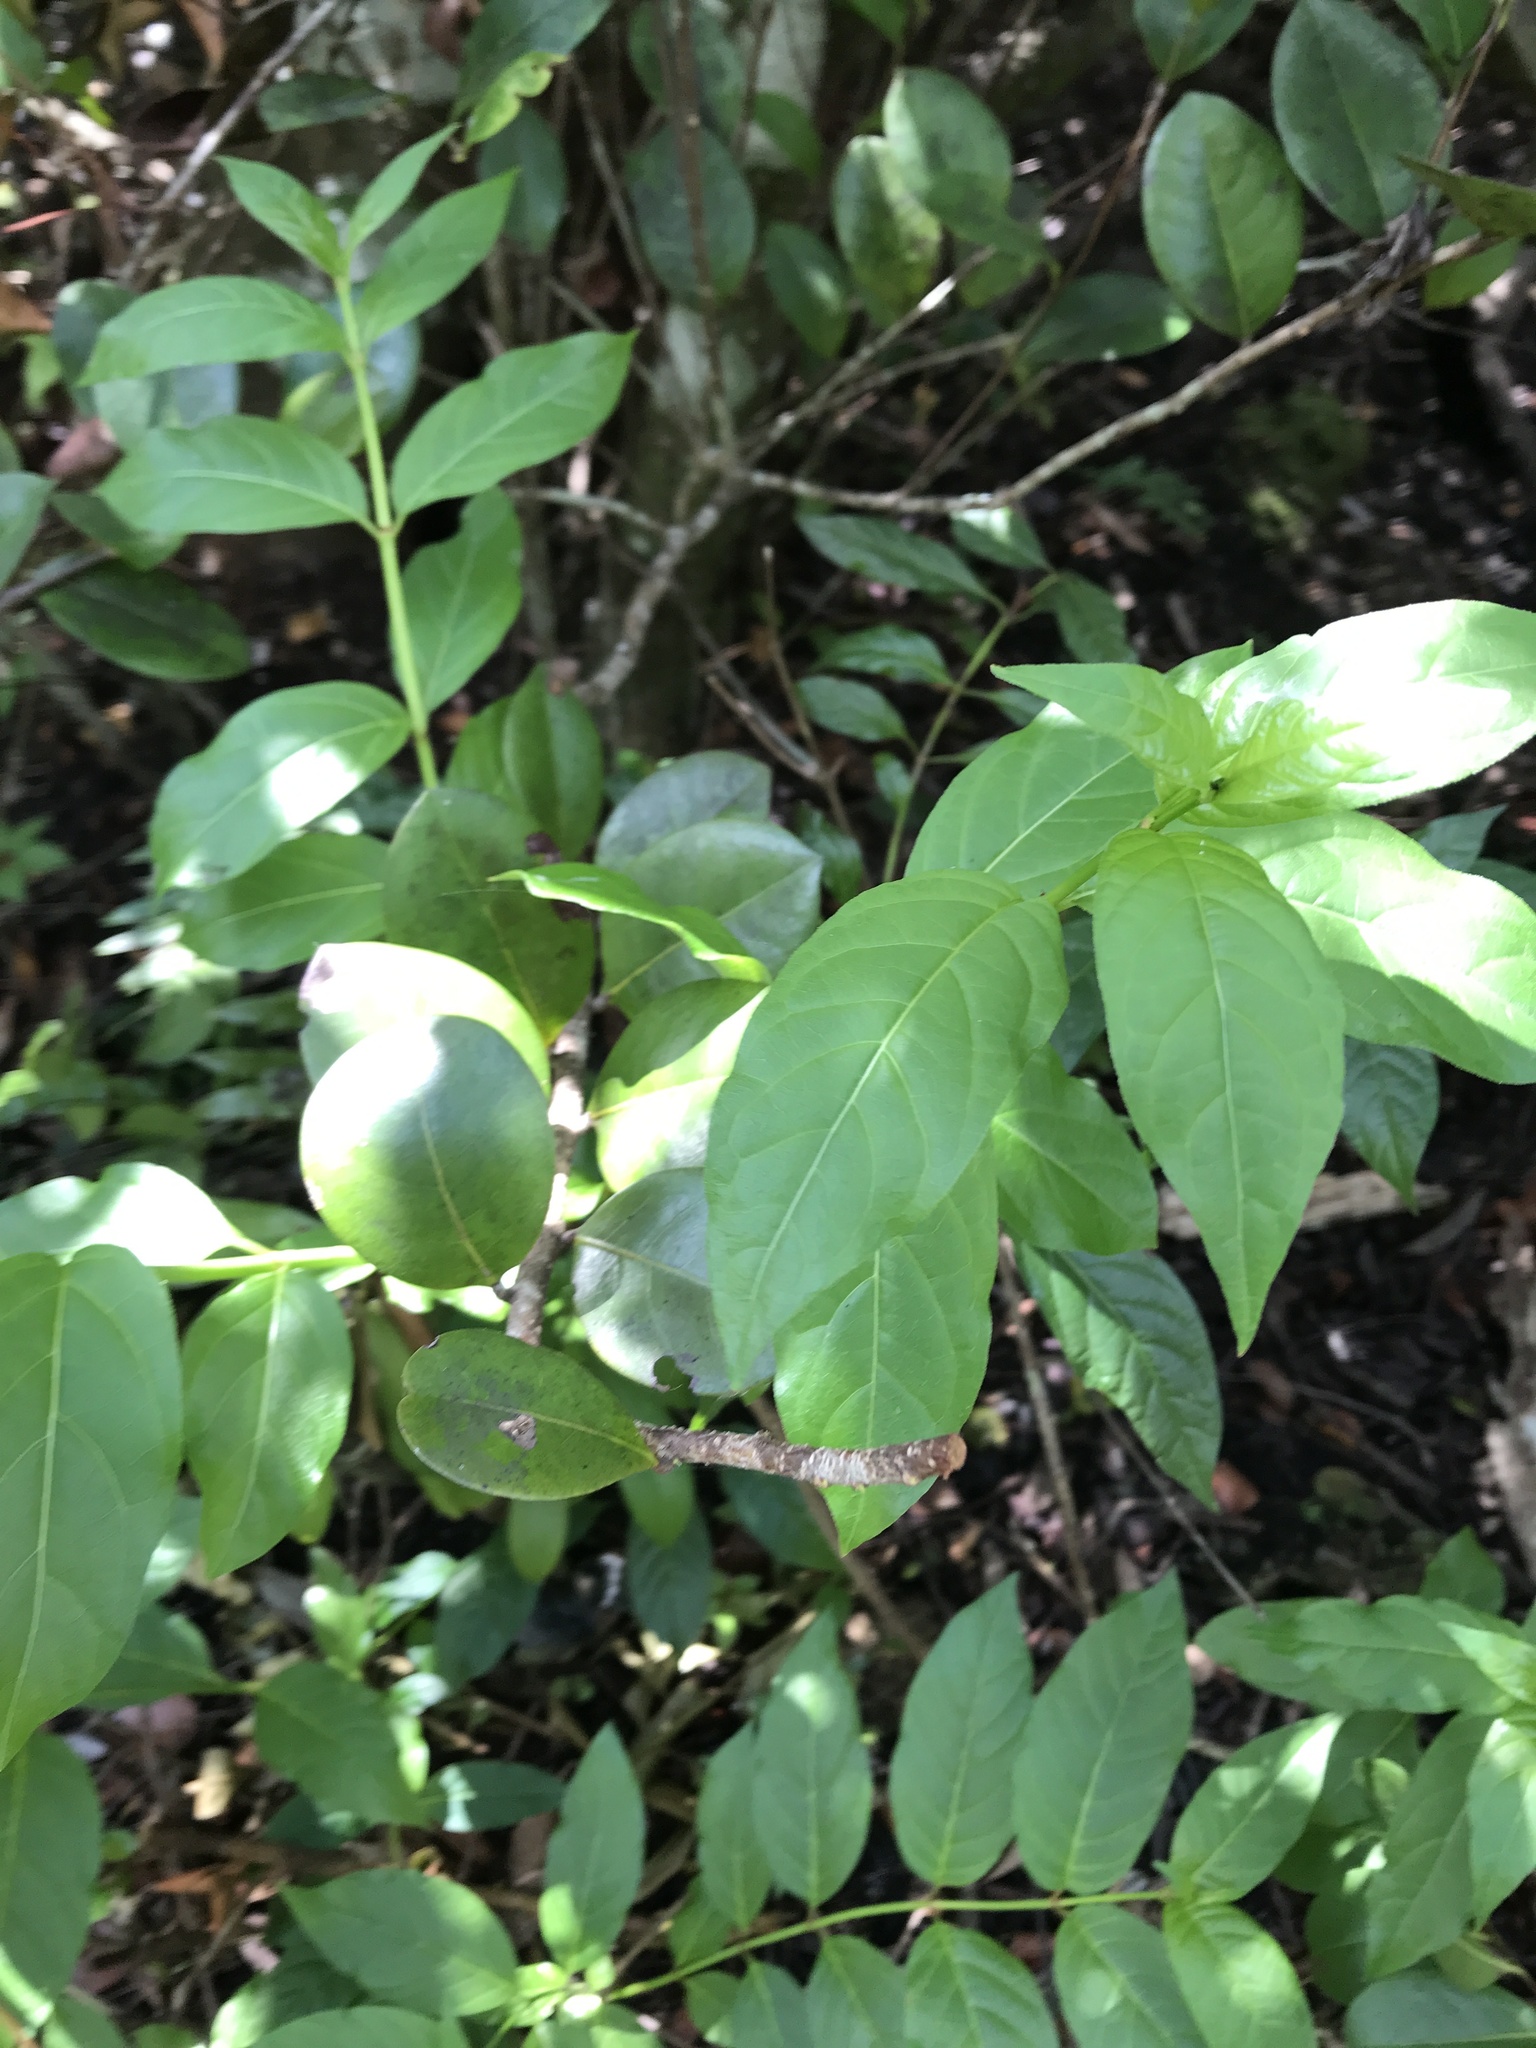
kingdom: Plantae
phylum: Tracheophyta
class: Magnoliopsida
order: Gentianales
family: Rubiaceae
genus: Cephalanthus
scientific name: Cephalanthus occidentalis
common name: Button-willow
